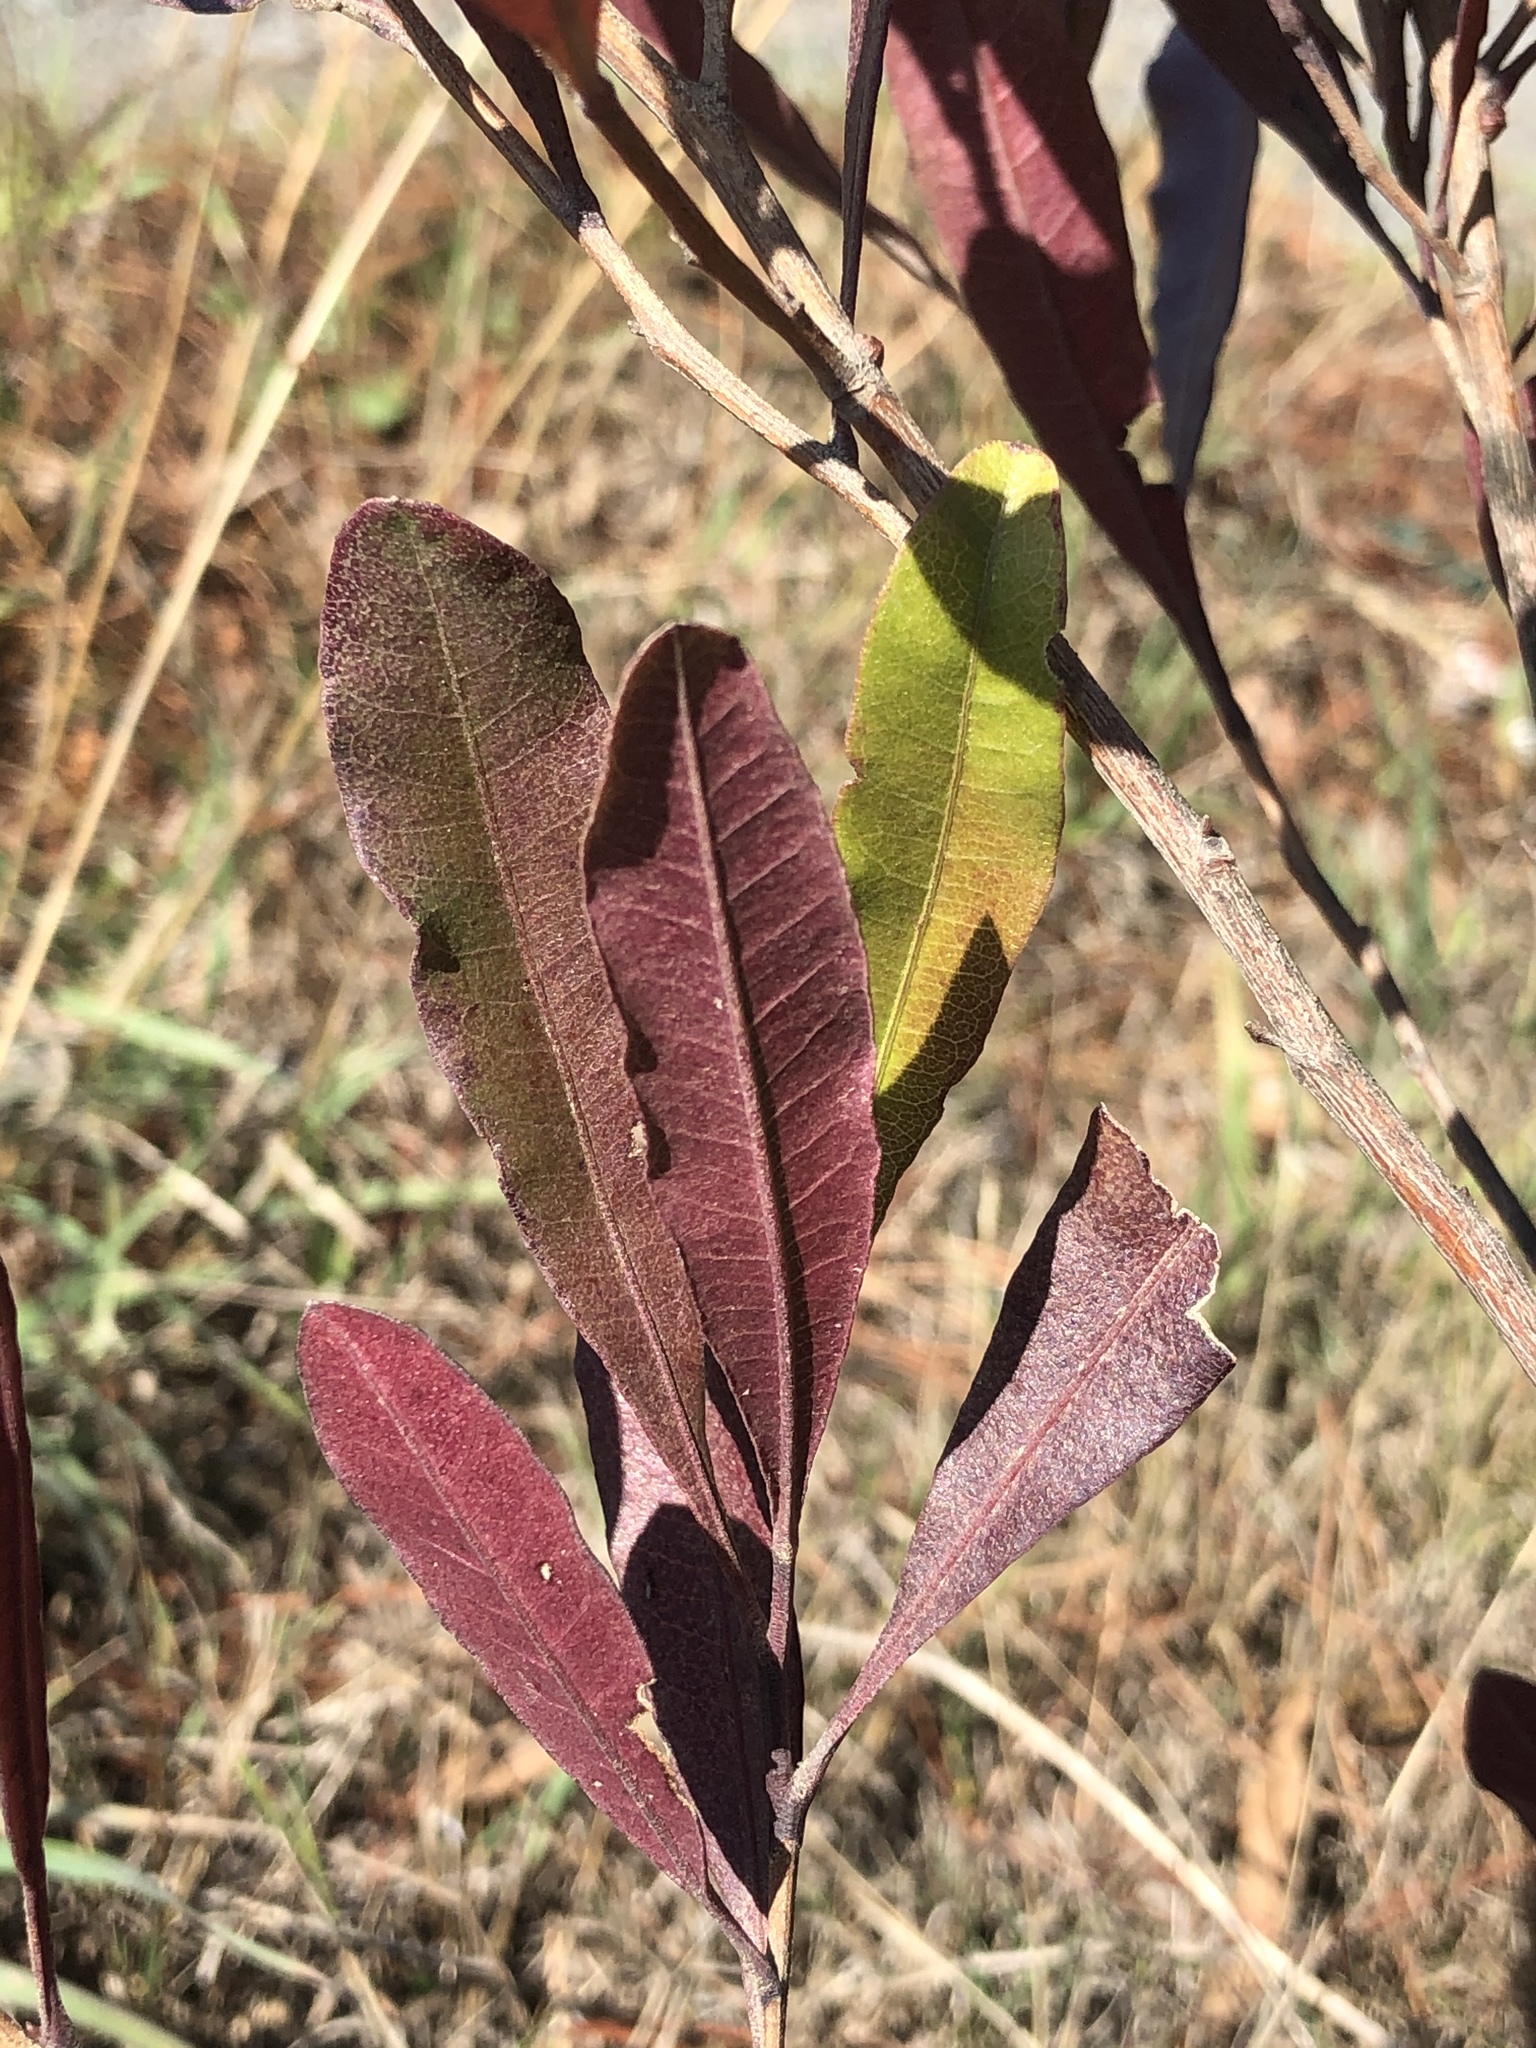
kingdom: Plantae
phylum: Tracheophyta
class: Magnoliopsida
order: Sapindales
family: Sapindaceae
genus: Dodonaea
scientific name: Dodonaea viscosa
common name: Hopbush
